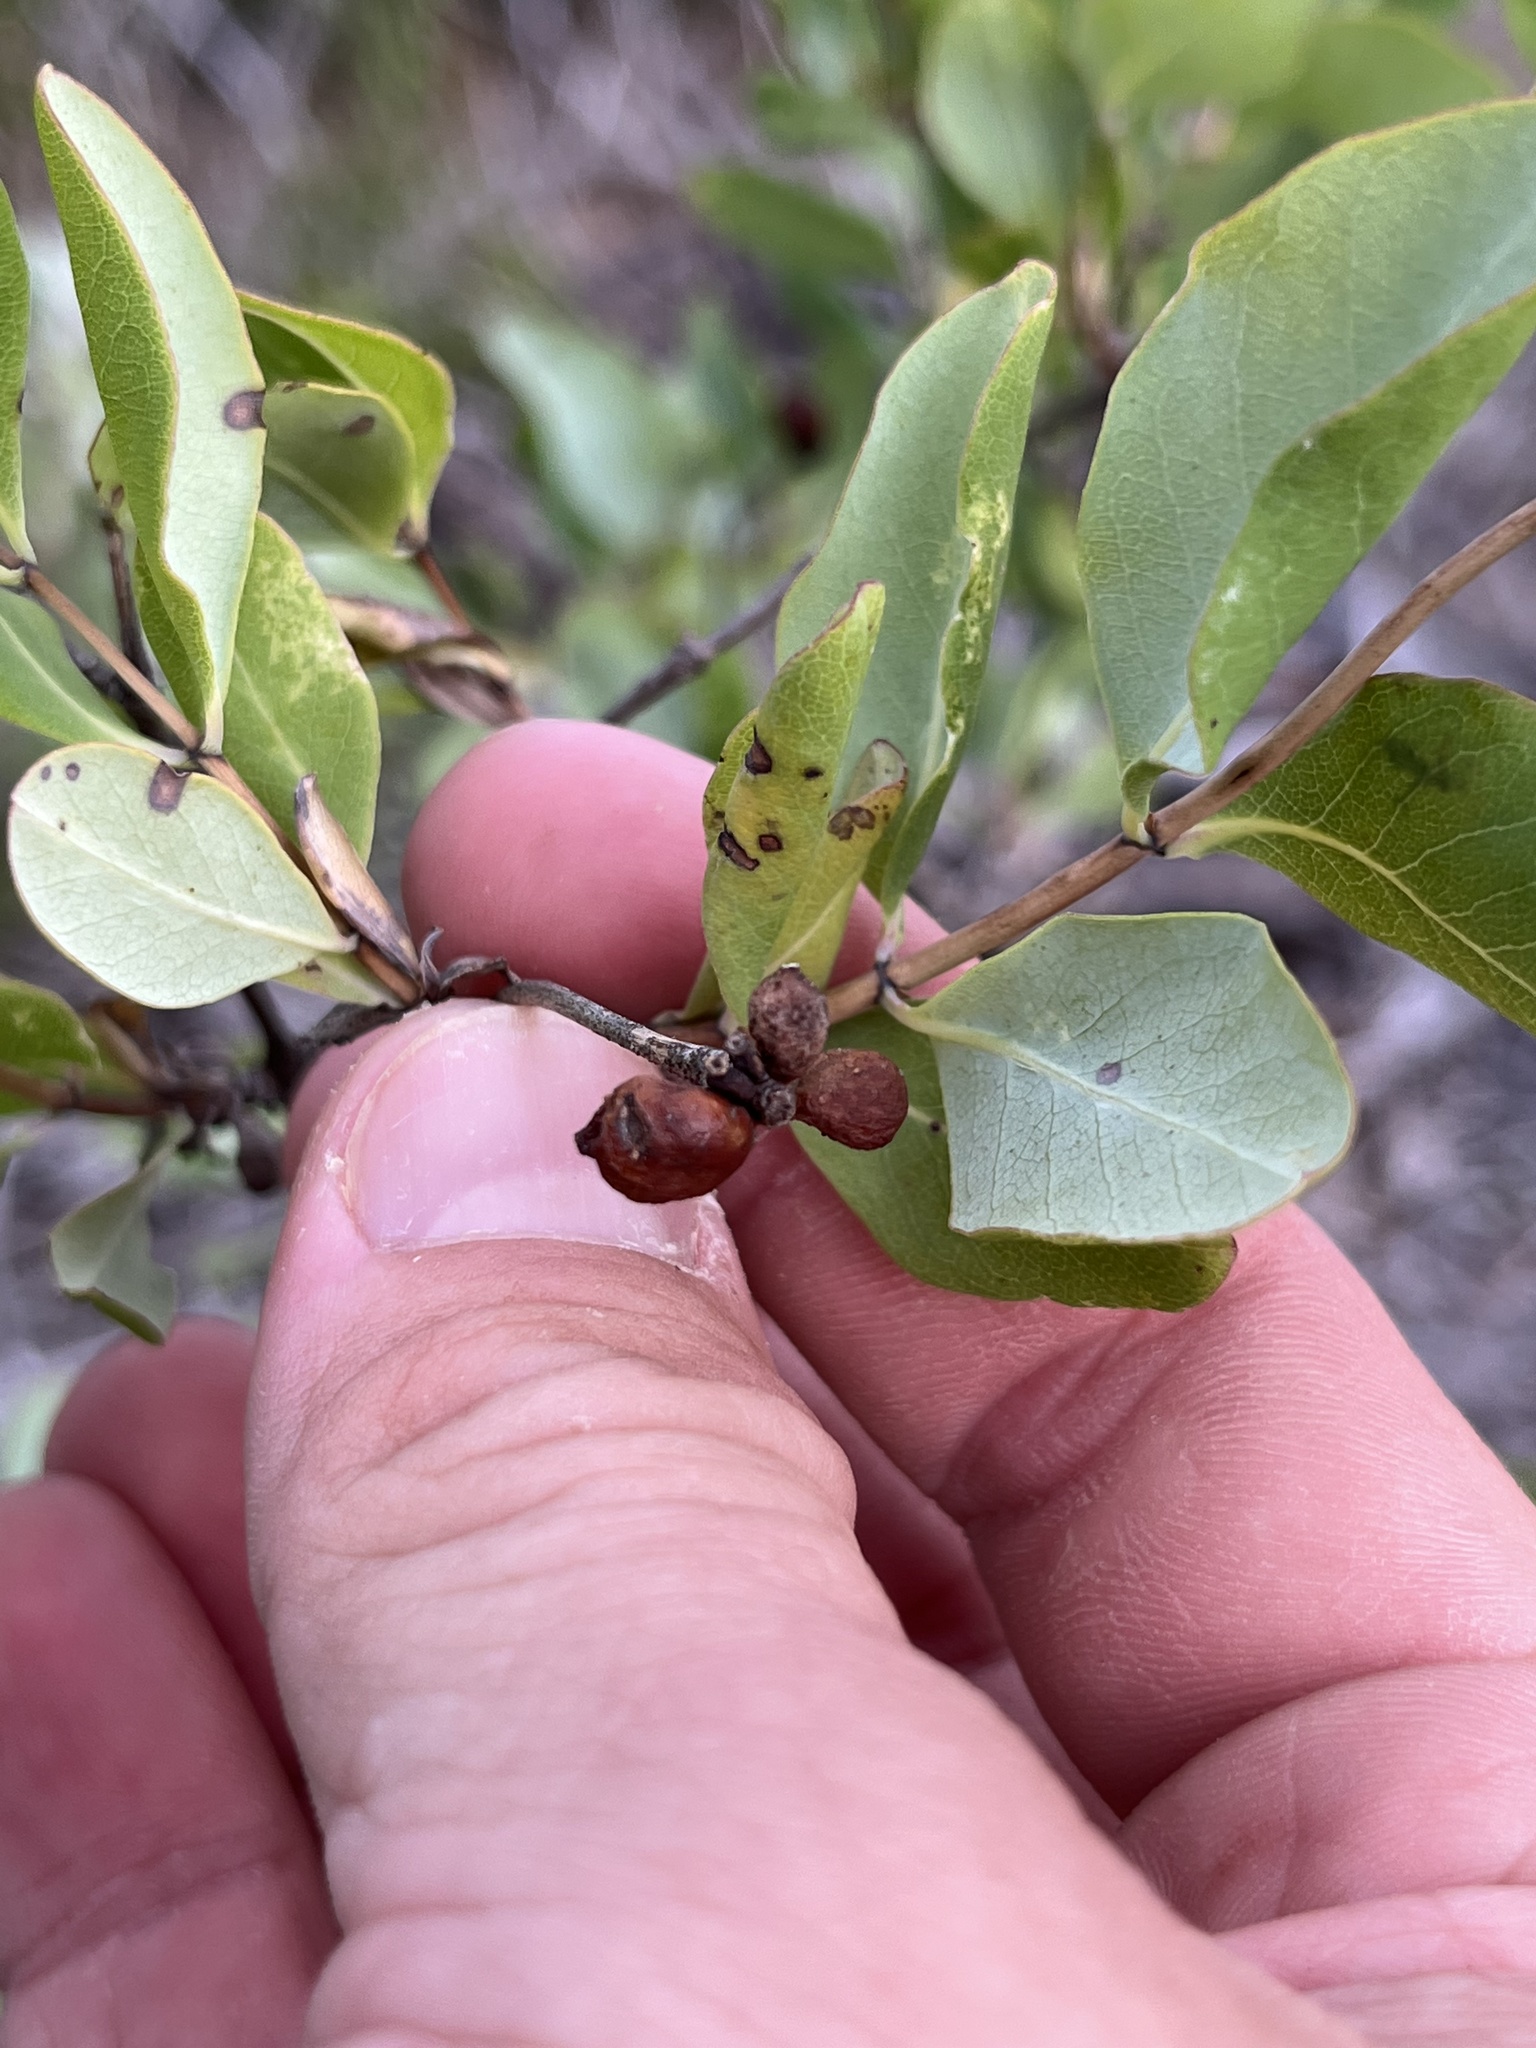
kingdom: Plantae
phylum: Tracheophyta
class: Magnoliopsida
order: Dipsacales
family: Caprifoliaceae
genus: Lonicera
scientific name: Lonicera albiflora
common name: White honeysuckle
